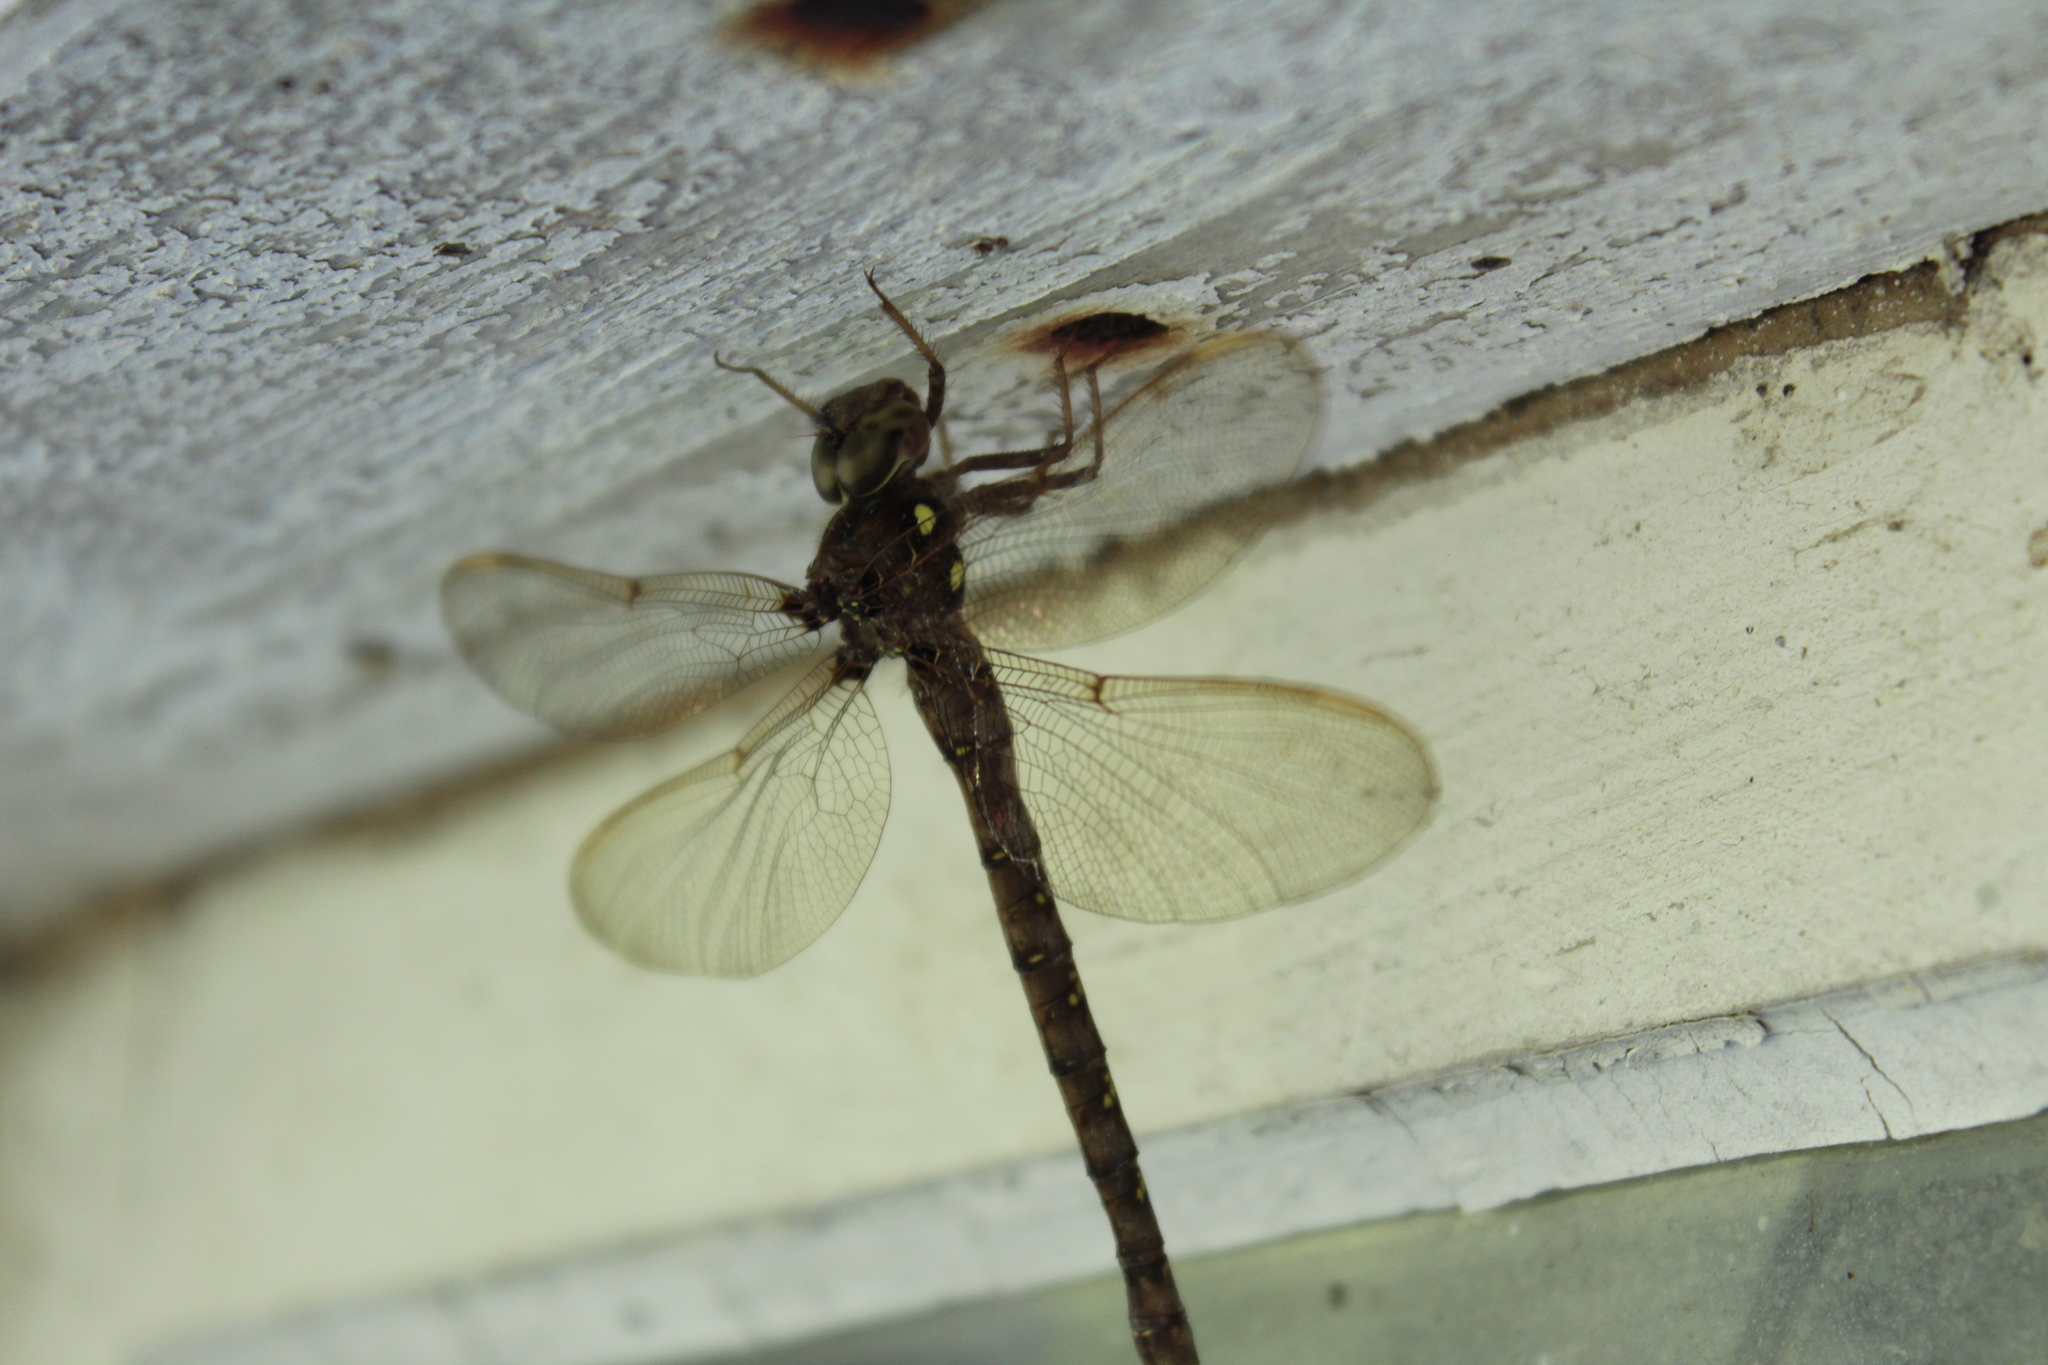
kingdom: Animalia
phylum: Arthropoda
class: Insecta
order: Odonata
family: Aeshnidae
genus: Boyeria
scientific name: Boyeria vinosa
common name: Fawn darner
